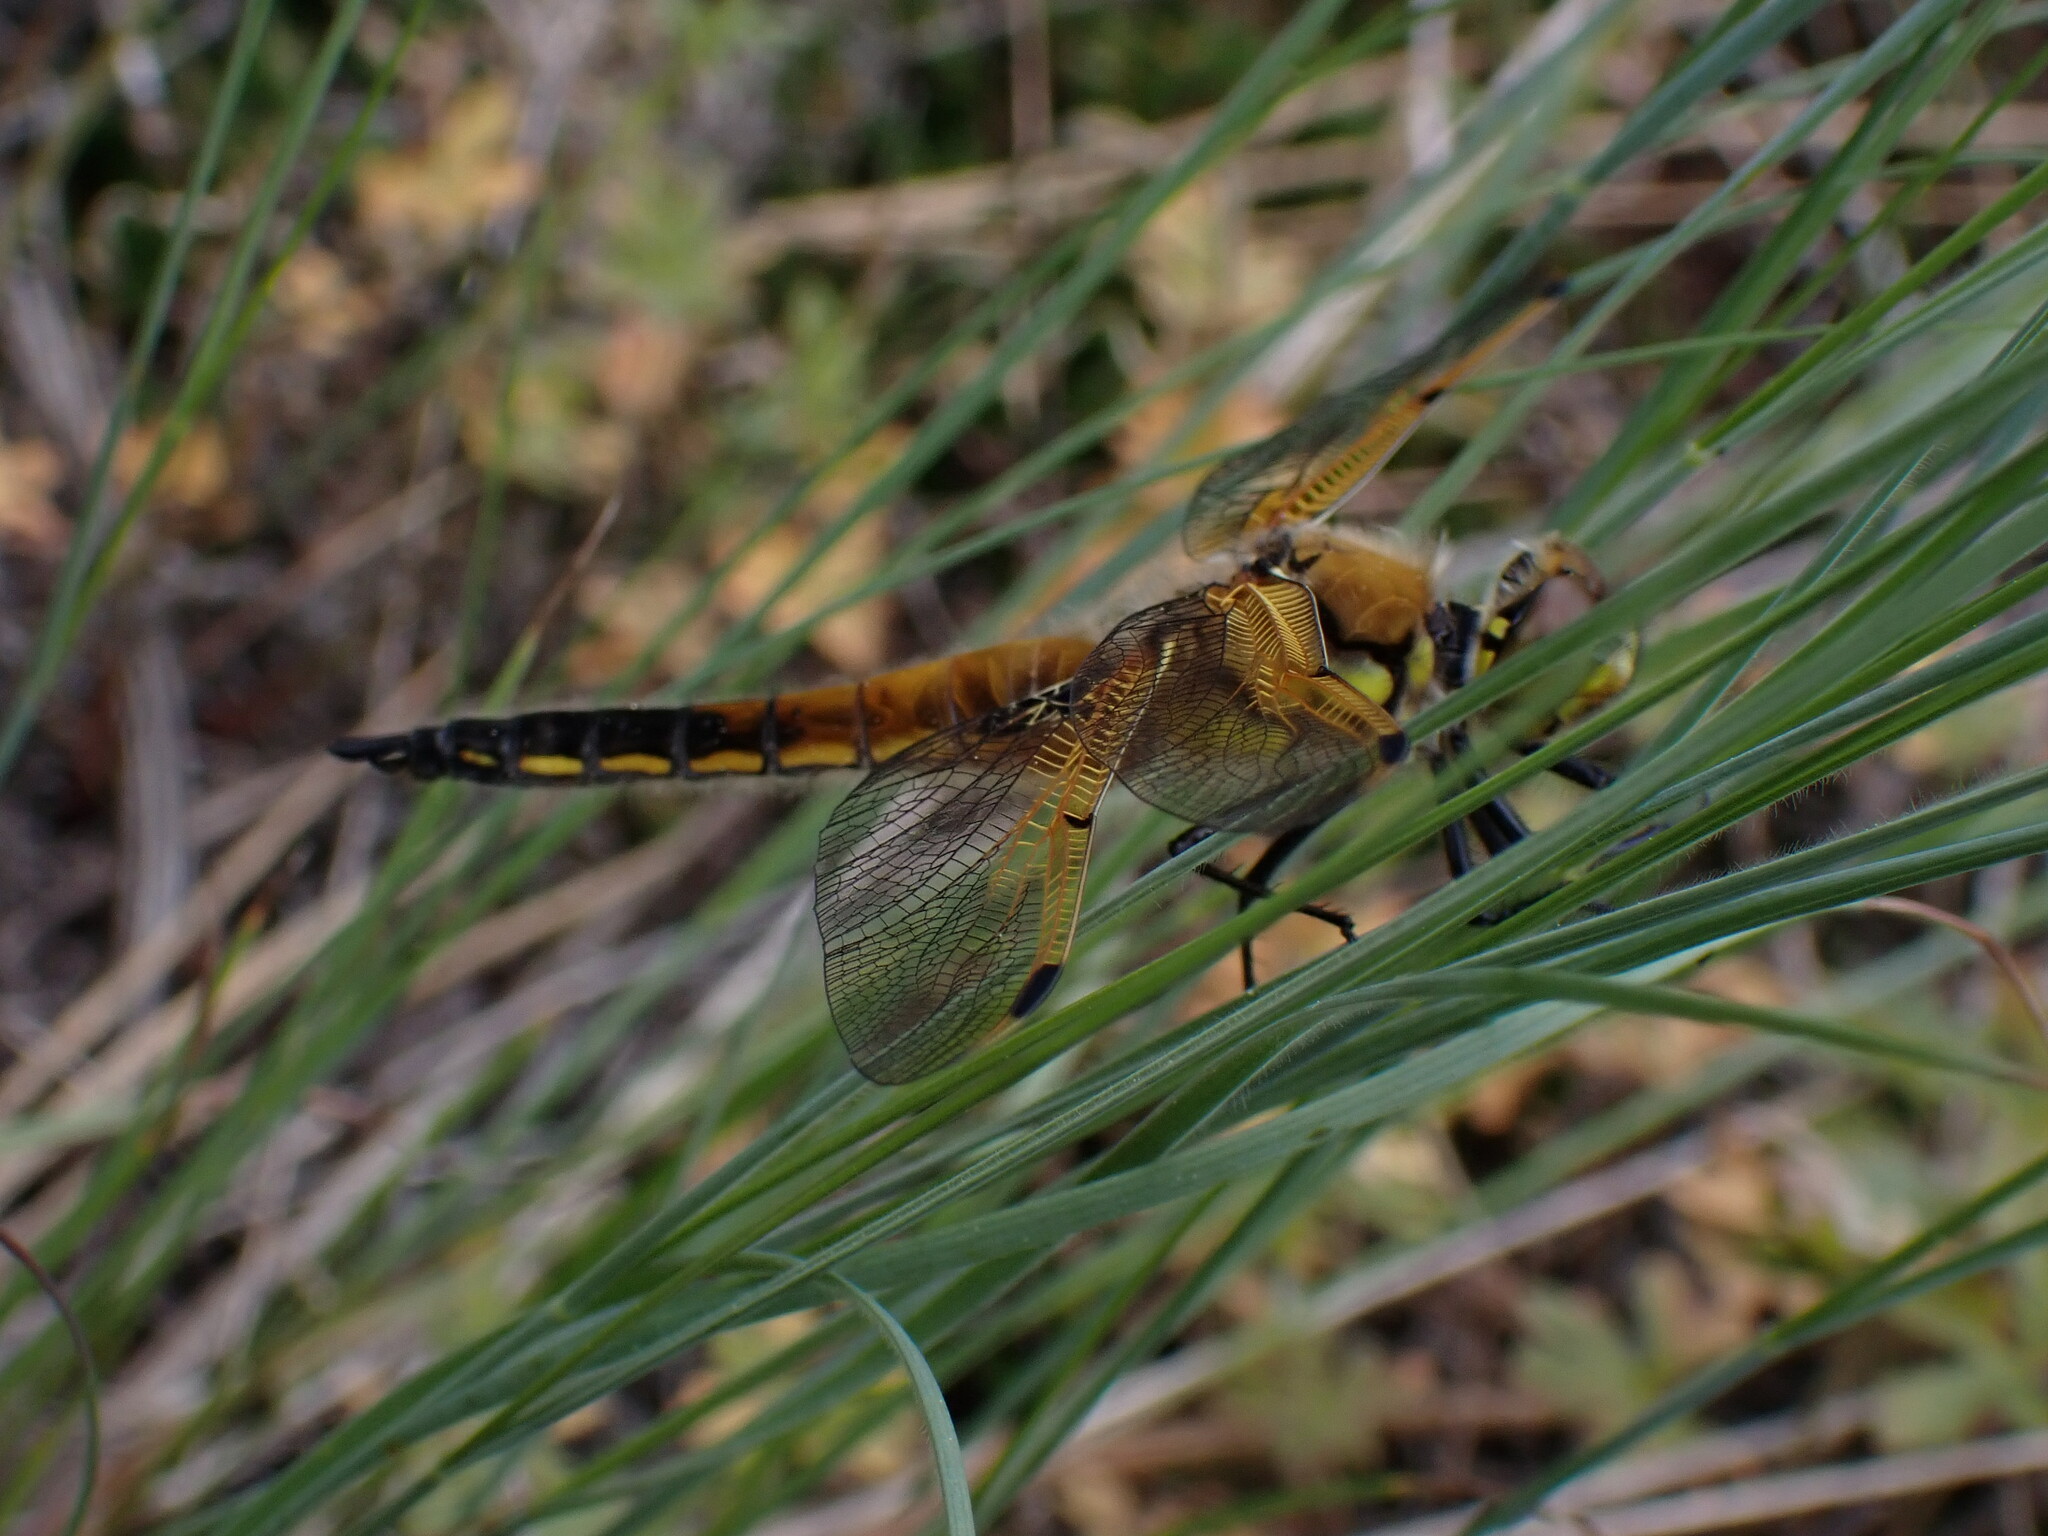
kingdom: Animalia
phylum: Arthropoda
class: Insecta
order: Odonata
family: Libellulidae
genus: Libellula
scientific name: Libellula quadrimaculata
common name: Four-spotted chaser
